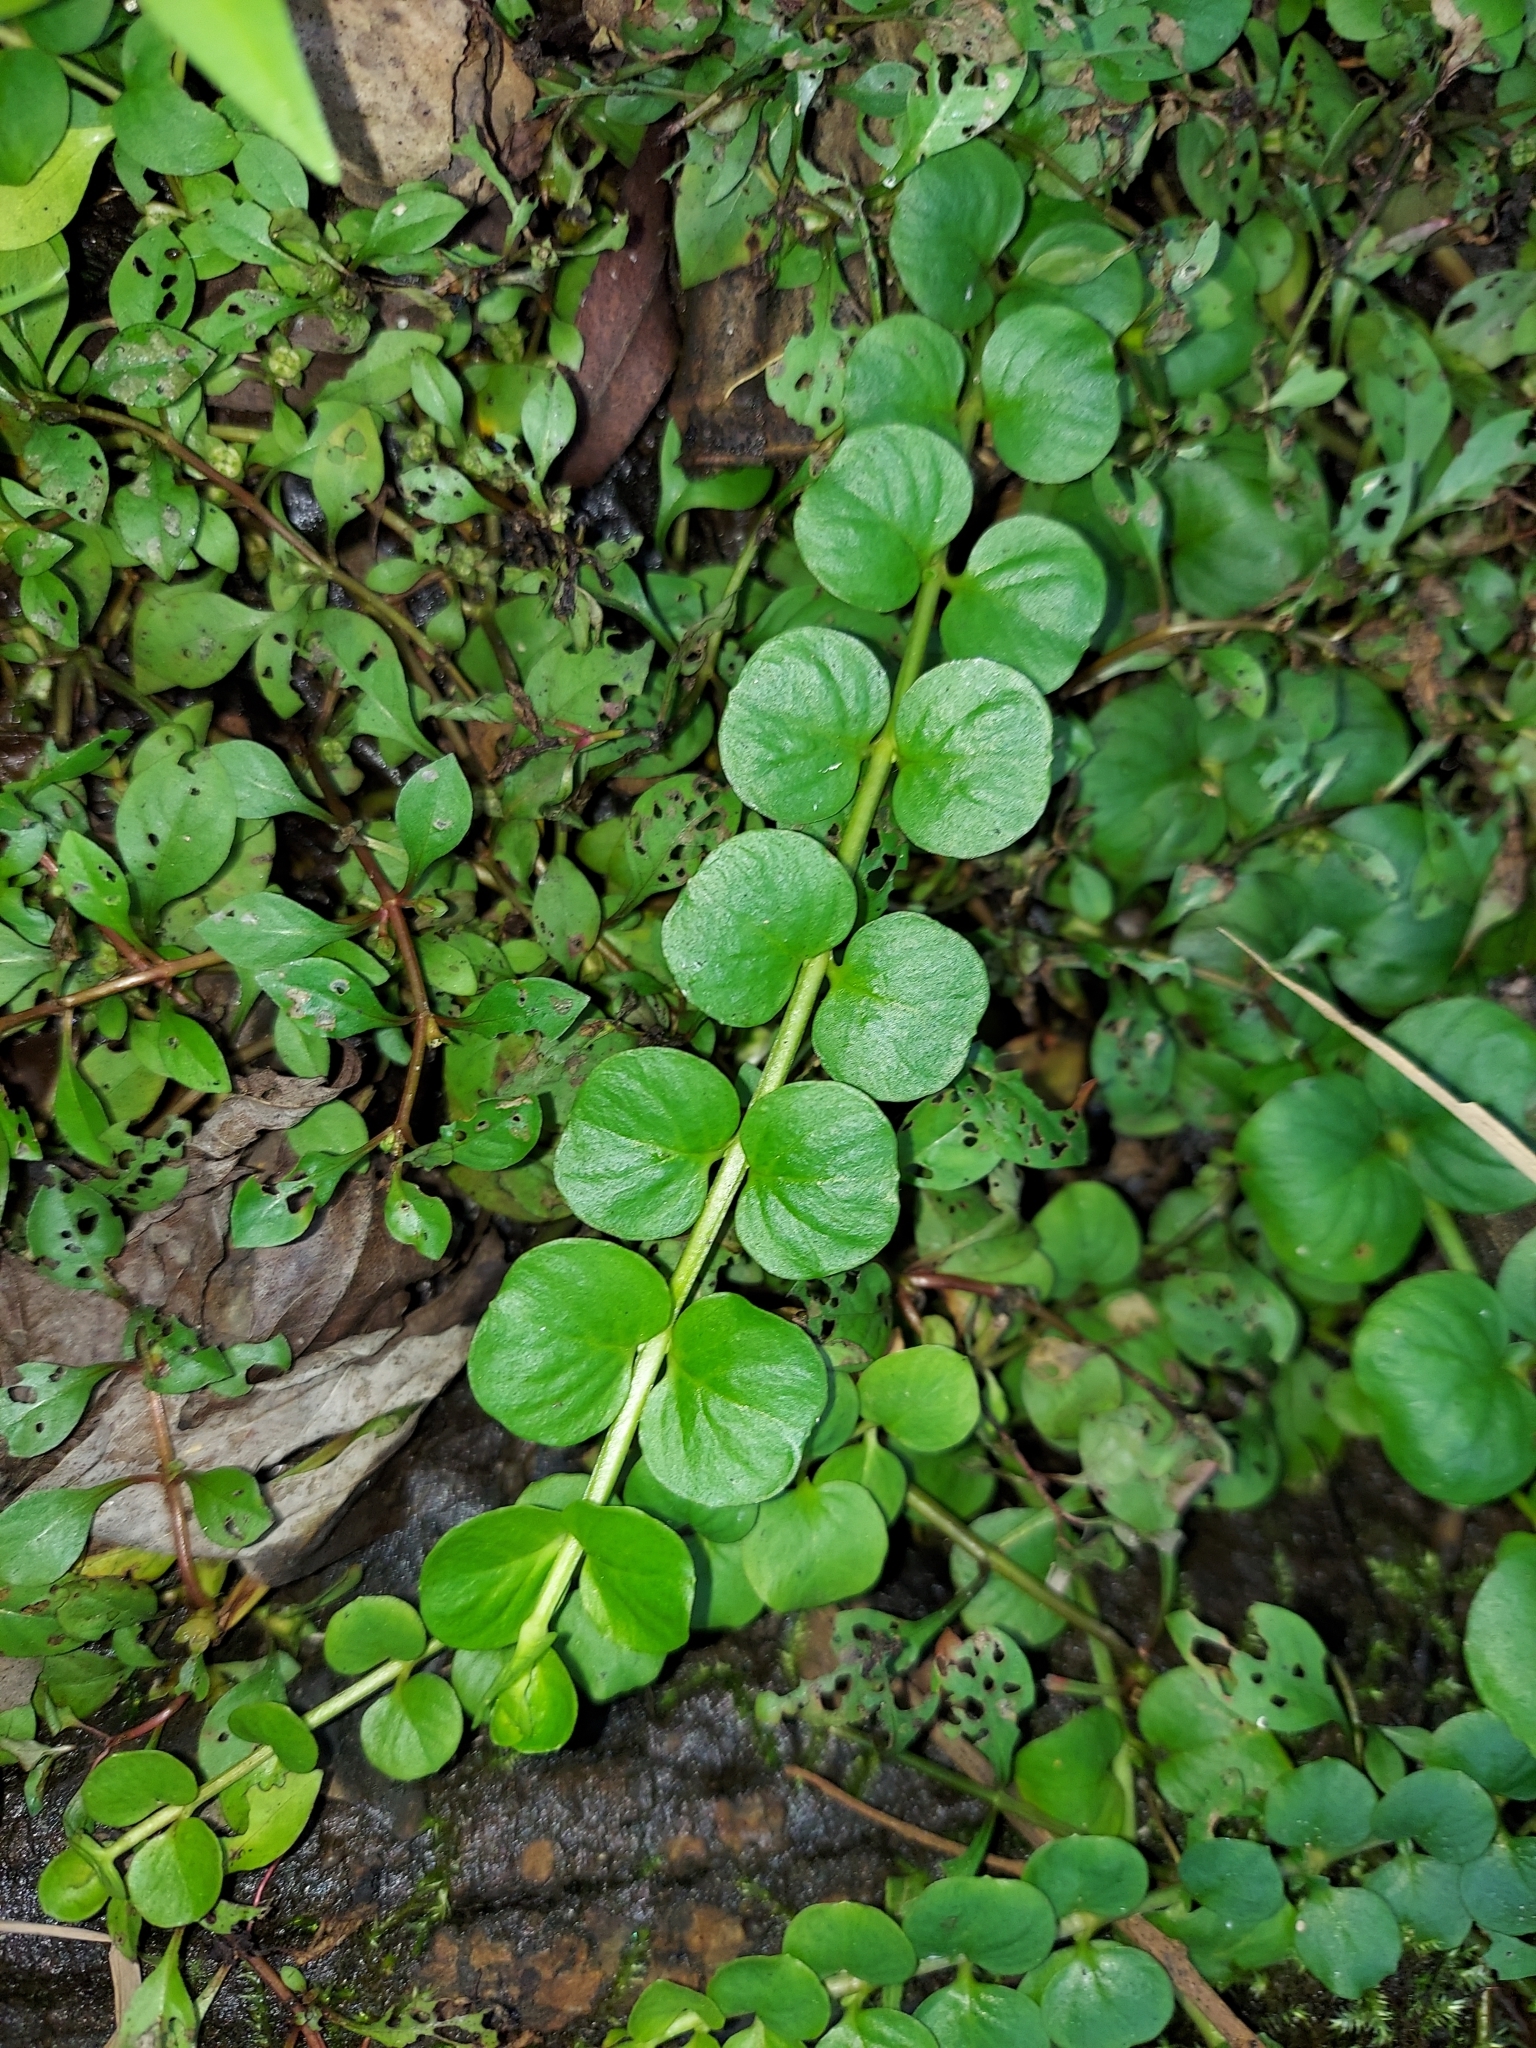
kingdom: Plantae
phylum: Tracheophyta
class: Magnoliopsida
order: Ericales
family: Primulaceae
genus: Lysimachia
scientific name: Lysimachia nummularia
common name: Moneywort
